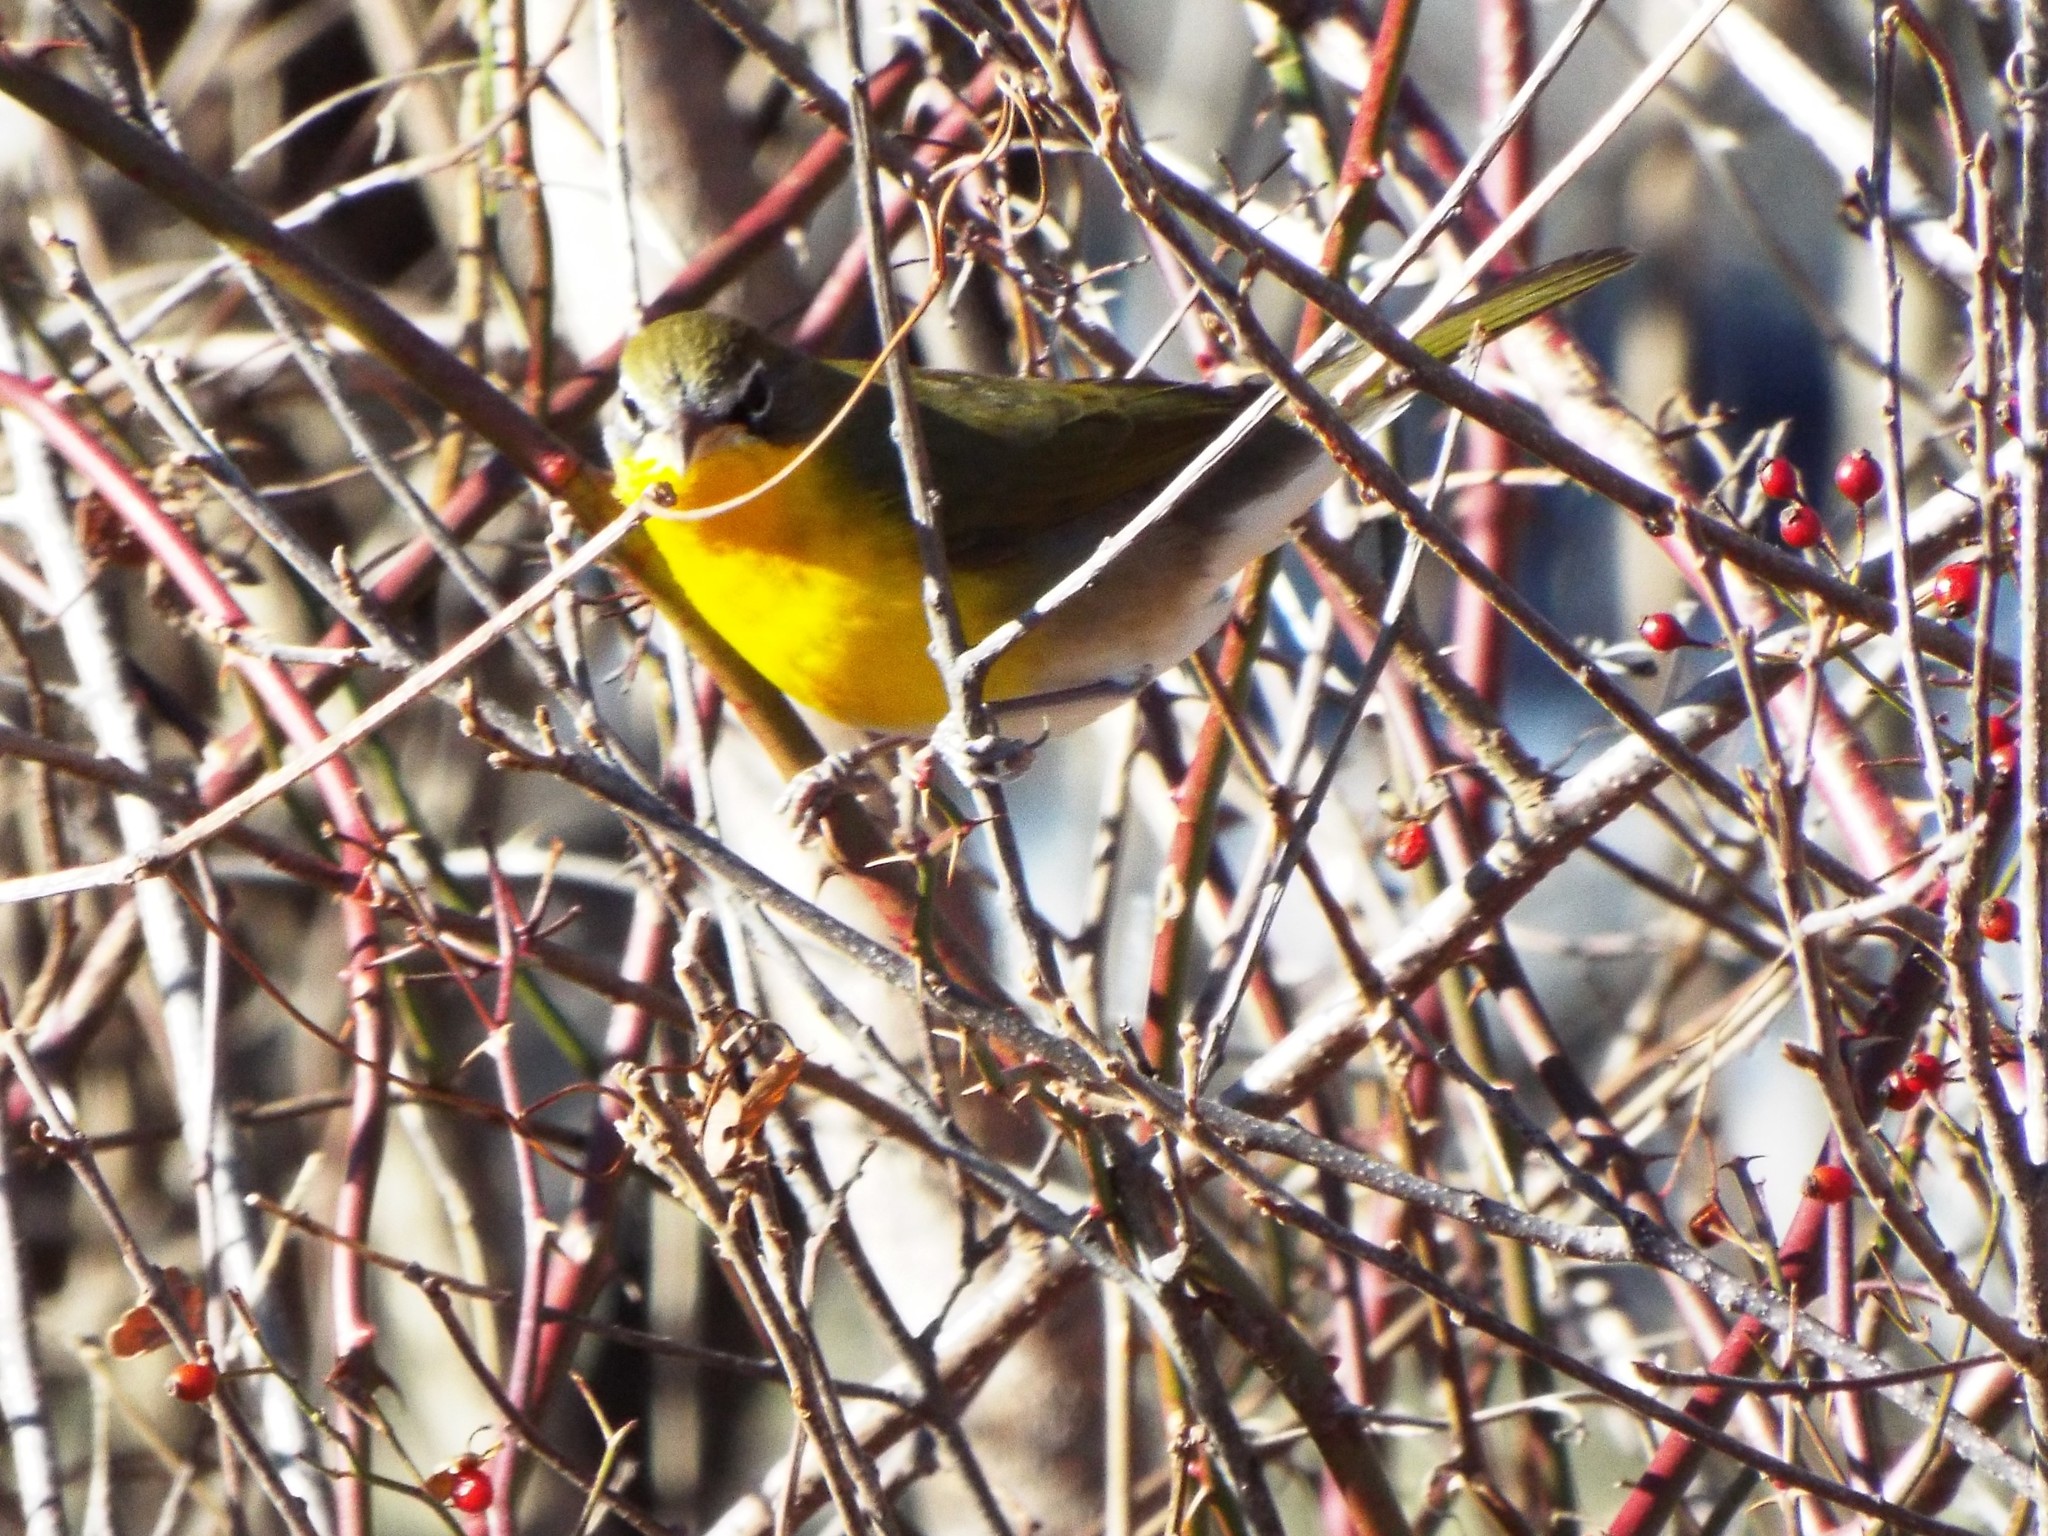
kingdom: Animalia
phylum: Chordata
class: Aves
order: Passeriformes
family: Parulidae
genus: Icteria
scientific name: Icteria virens
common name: Yellow-breasted chat
